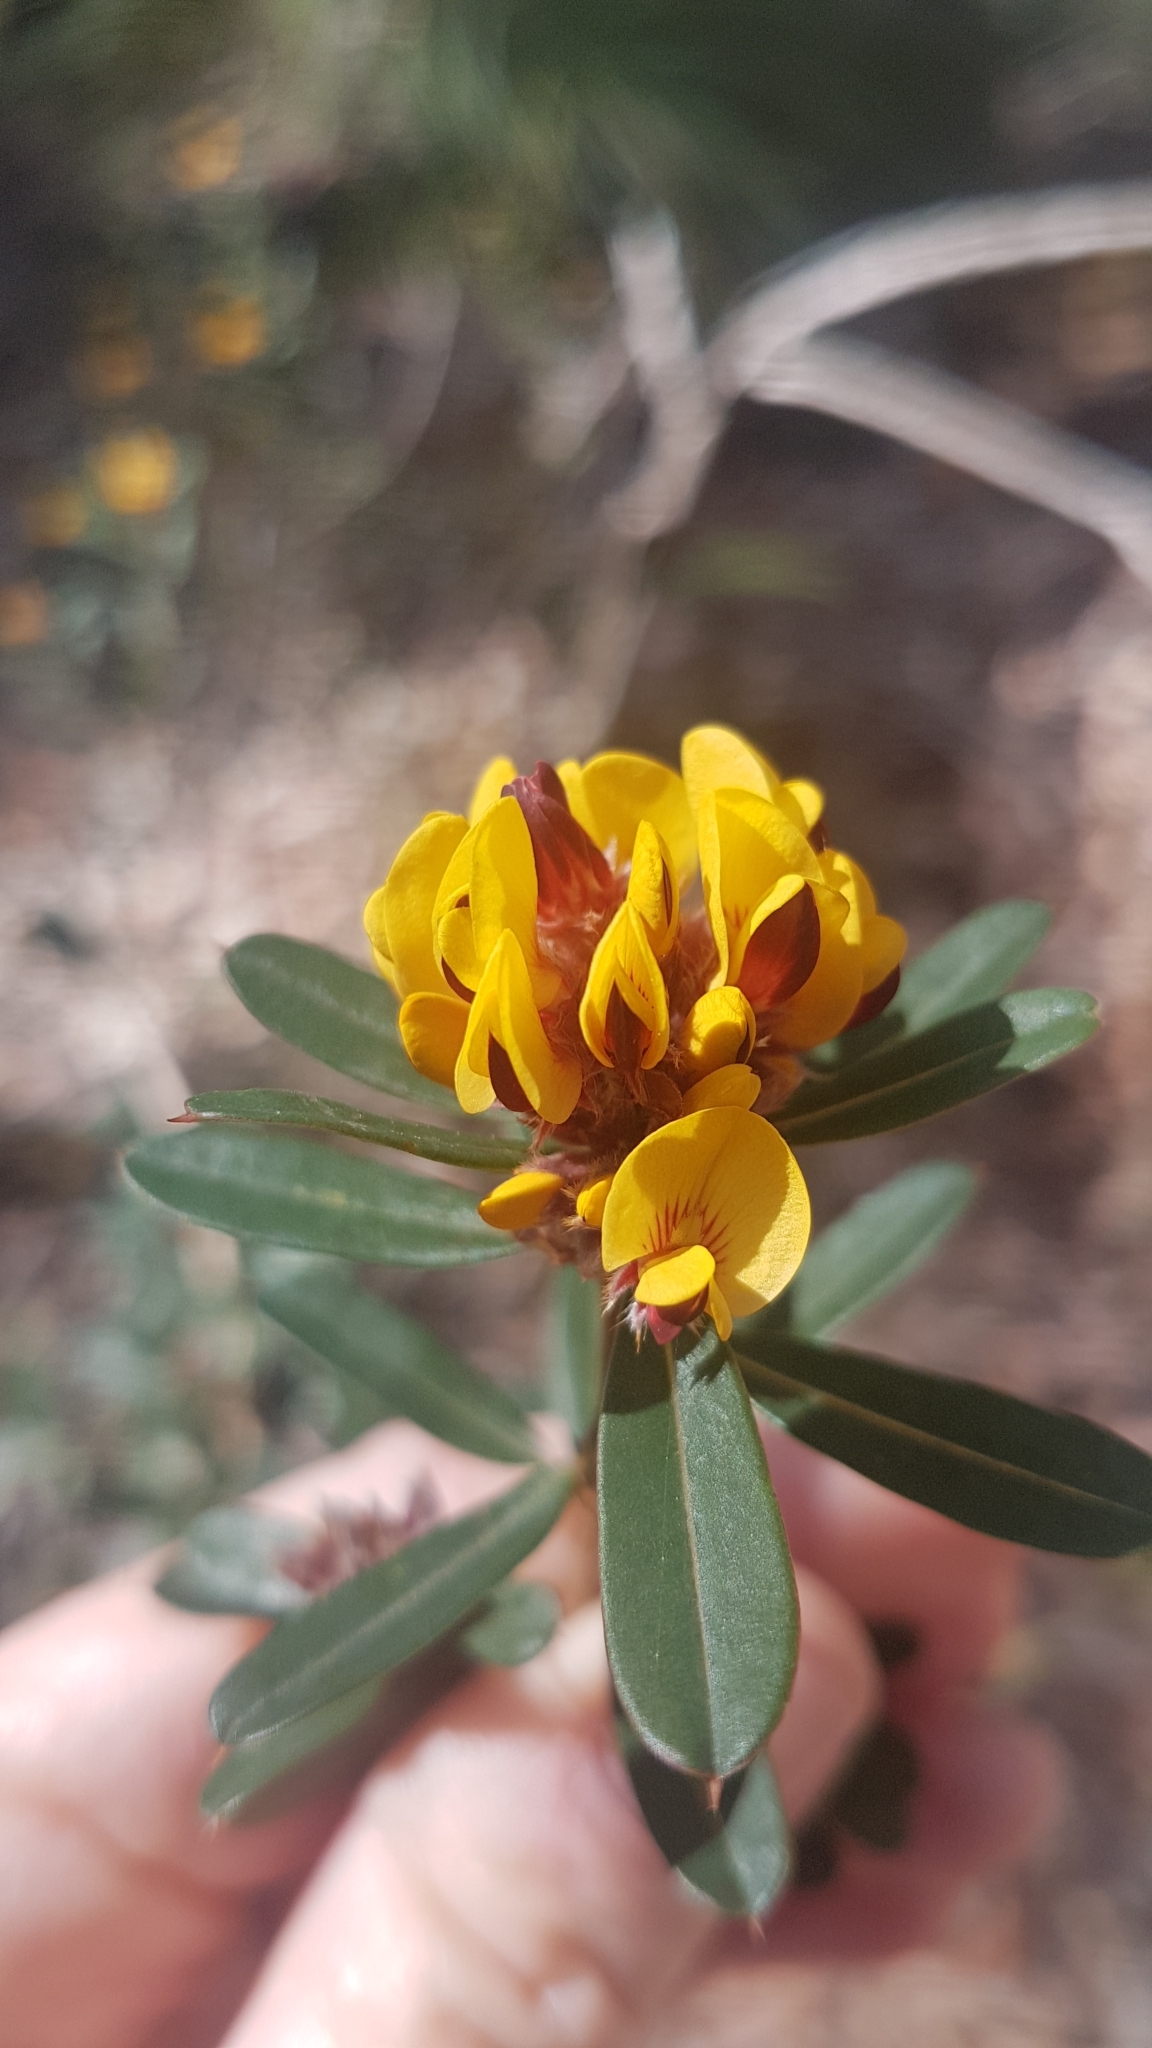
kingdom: Plantae
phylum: Tracheophyta
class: Magnoliopsida
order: Fabales
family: Fabaceae
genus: Pultenaea
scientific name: Pultenaea daphnoides
